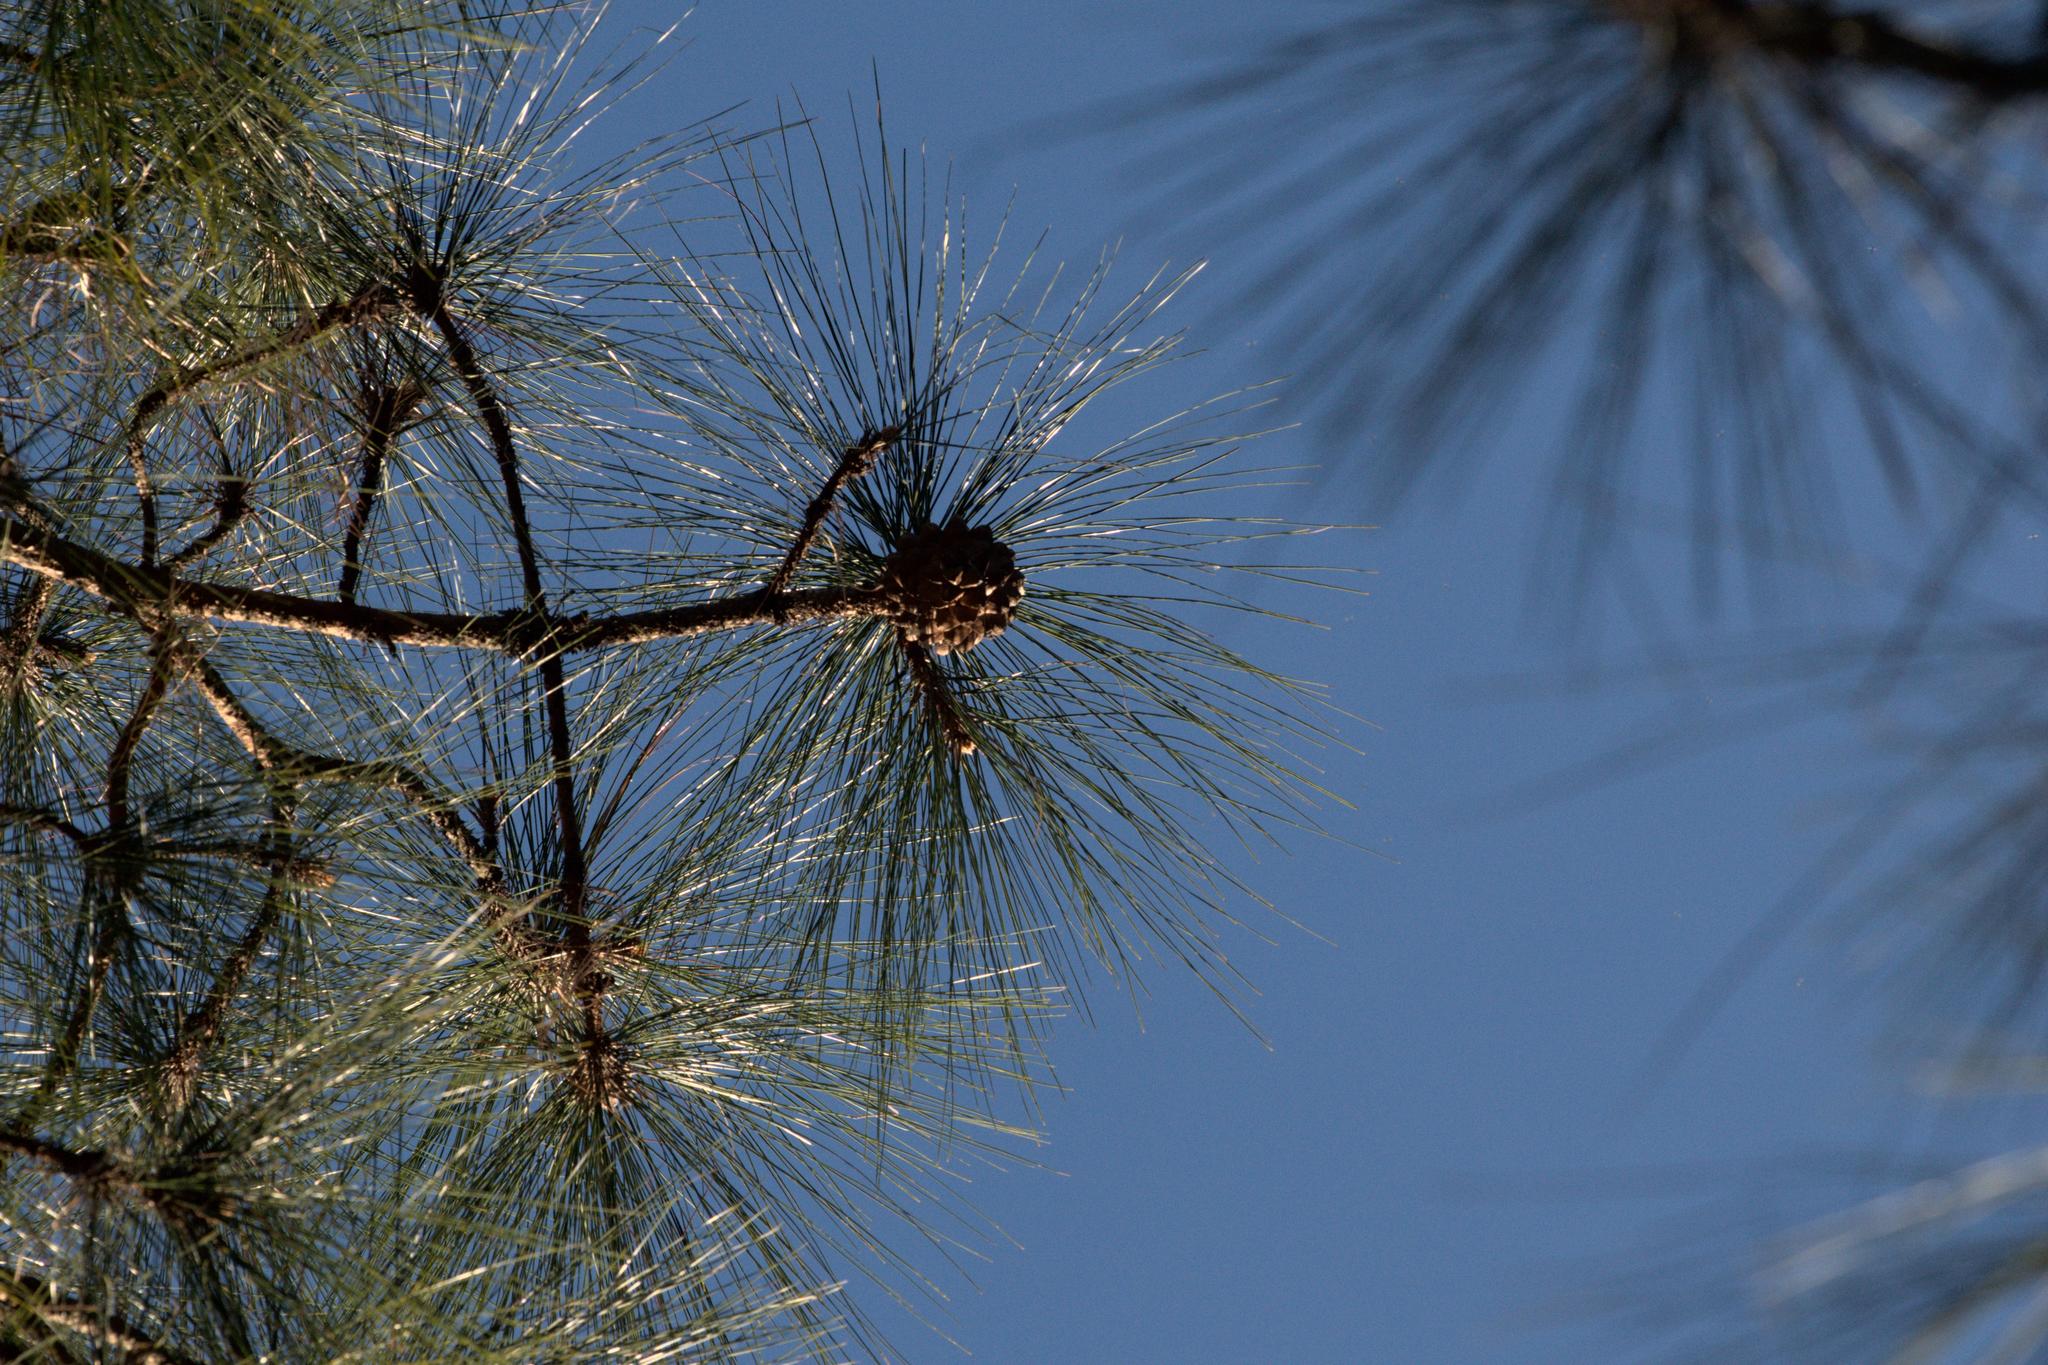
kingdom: Plantae
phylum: Tracheophyta
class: Pinopsida
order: Pinales
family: Pinaceae
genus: Pinus
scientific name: Pinus roxburghii
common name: Chir pine
